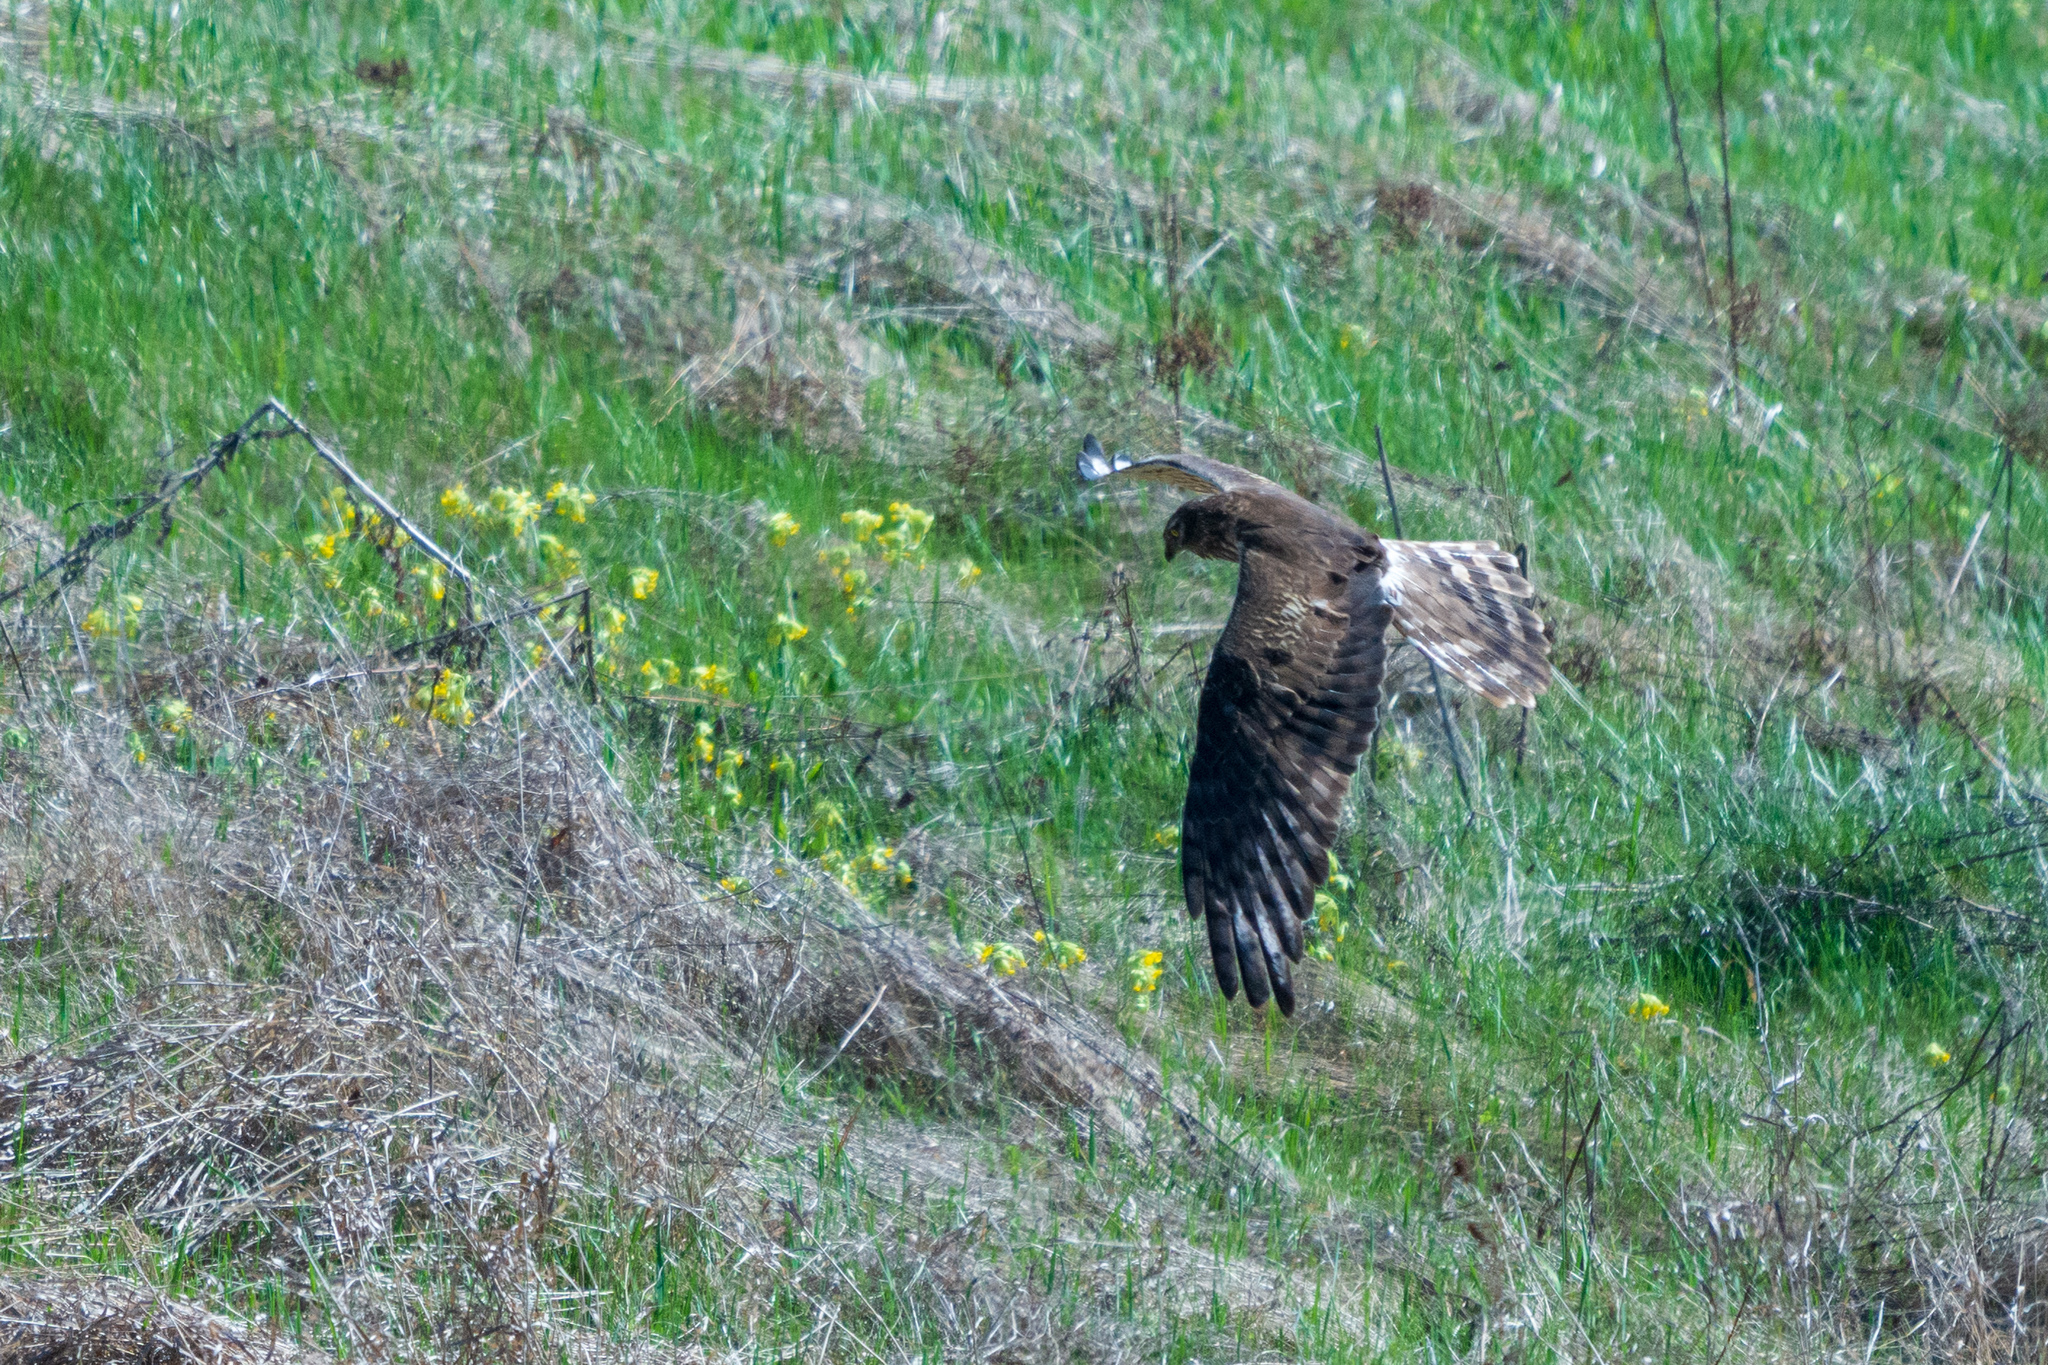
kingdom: Animalia
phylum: Chordata
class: Aves
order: Accipitriformes
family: Accipitridae
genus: Circus
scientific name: Circus pygargus
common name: Montagu's harrier
